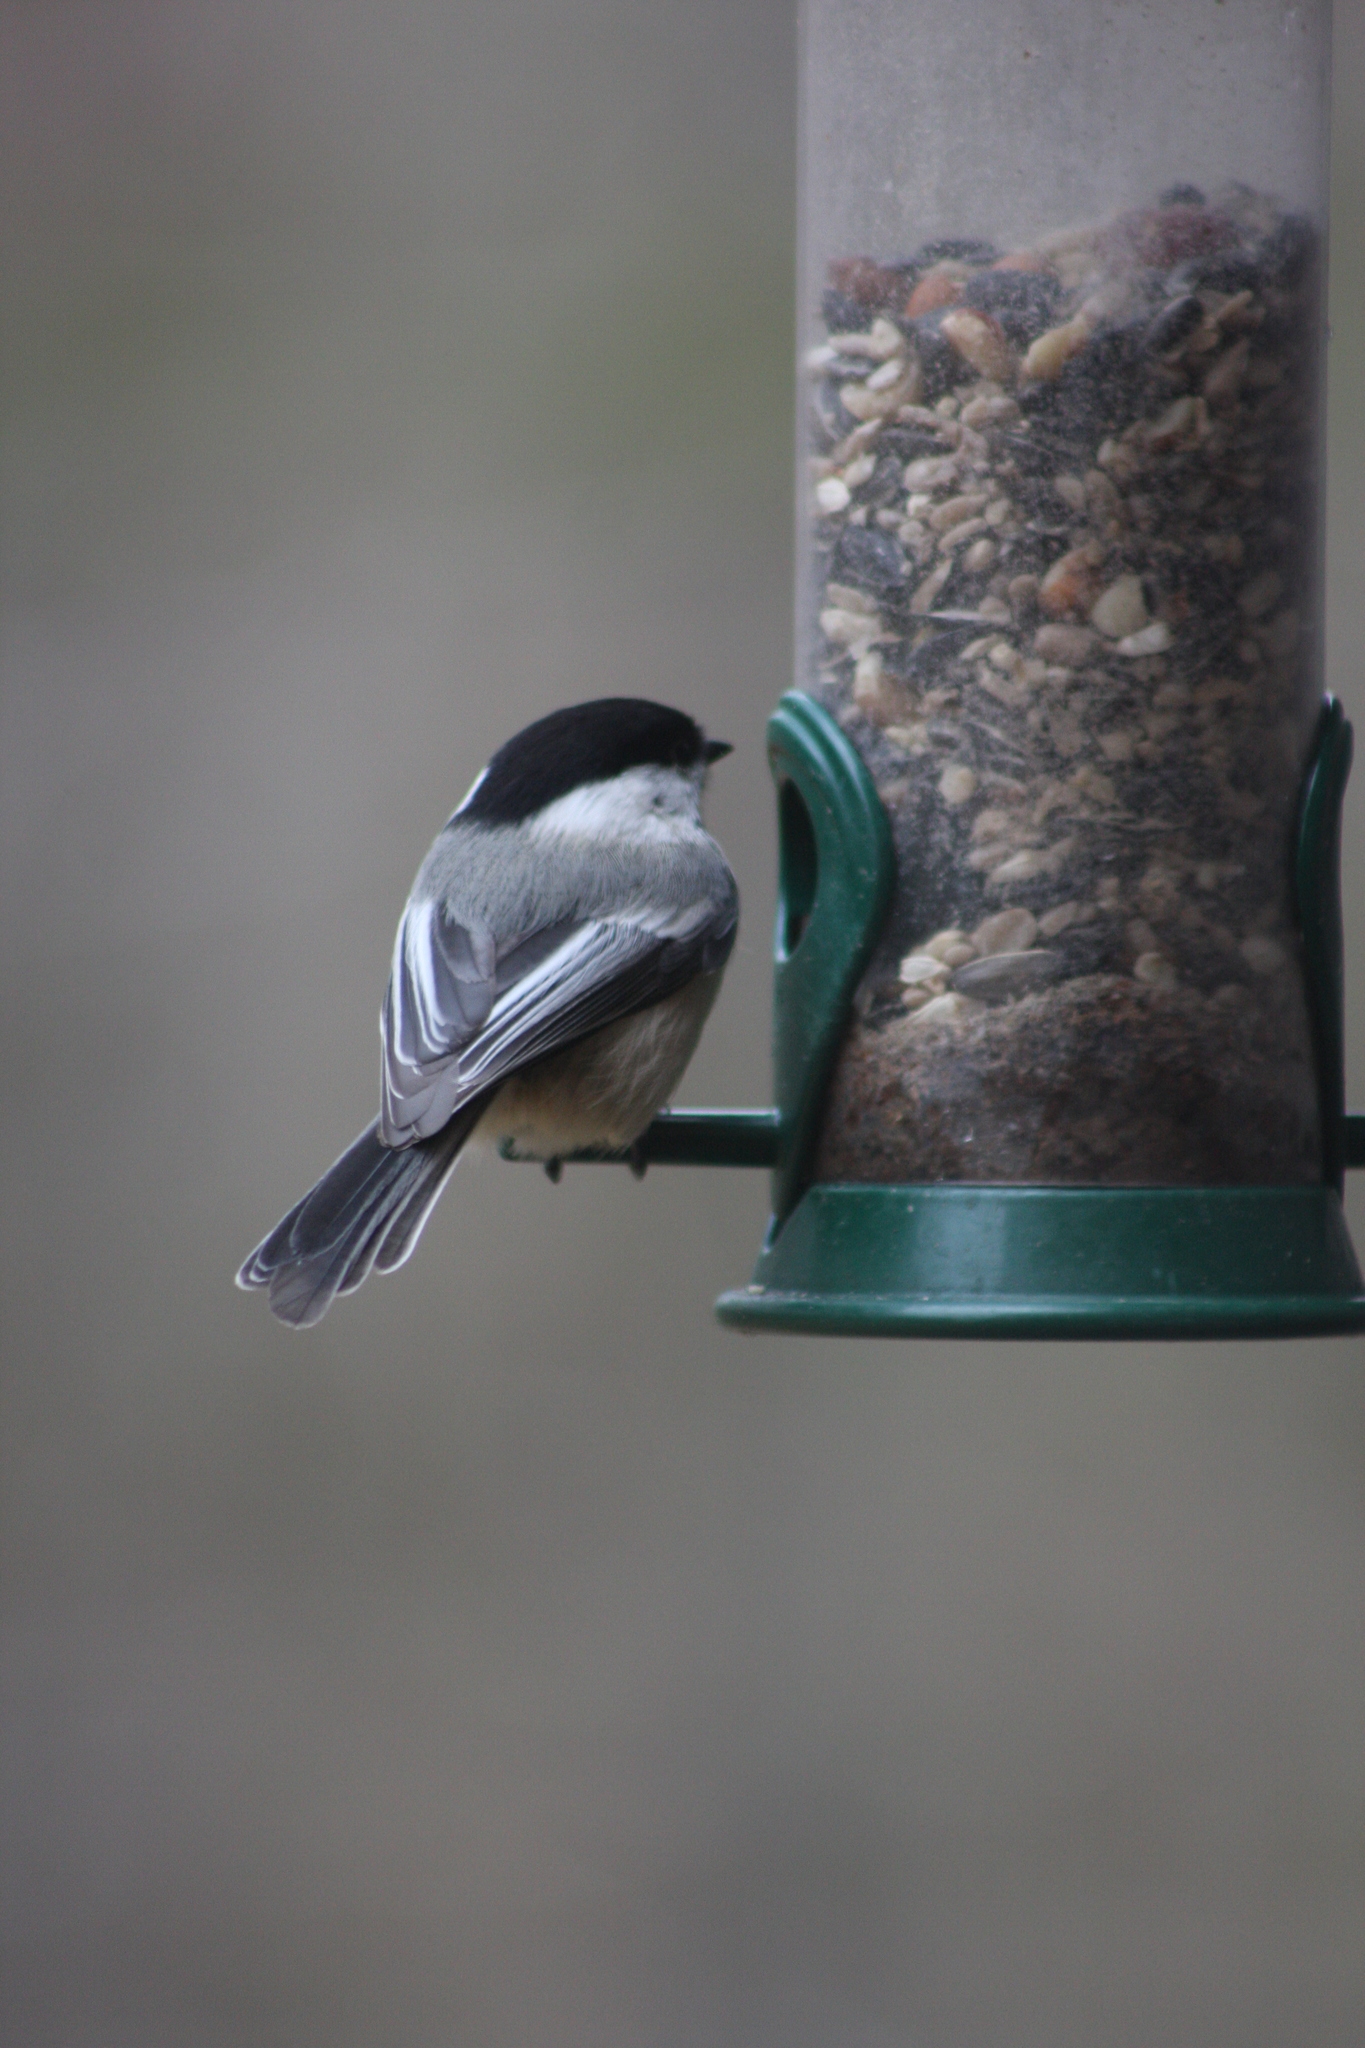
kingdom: Animalia
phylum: Chordata
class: Aves
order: Passeriformes
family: Paridae
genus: Poecile
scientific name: Poecile atricapillus
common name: Black-capped chickadee
